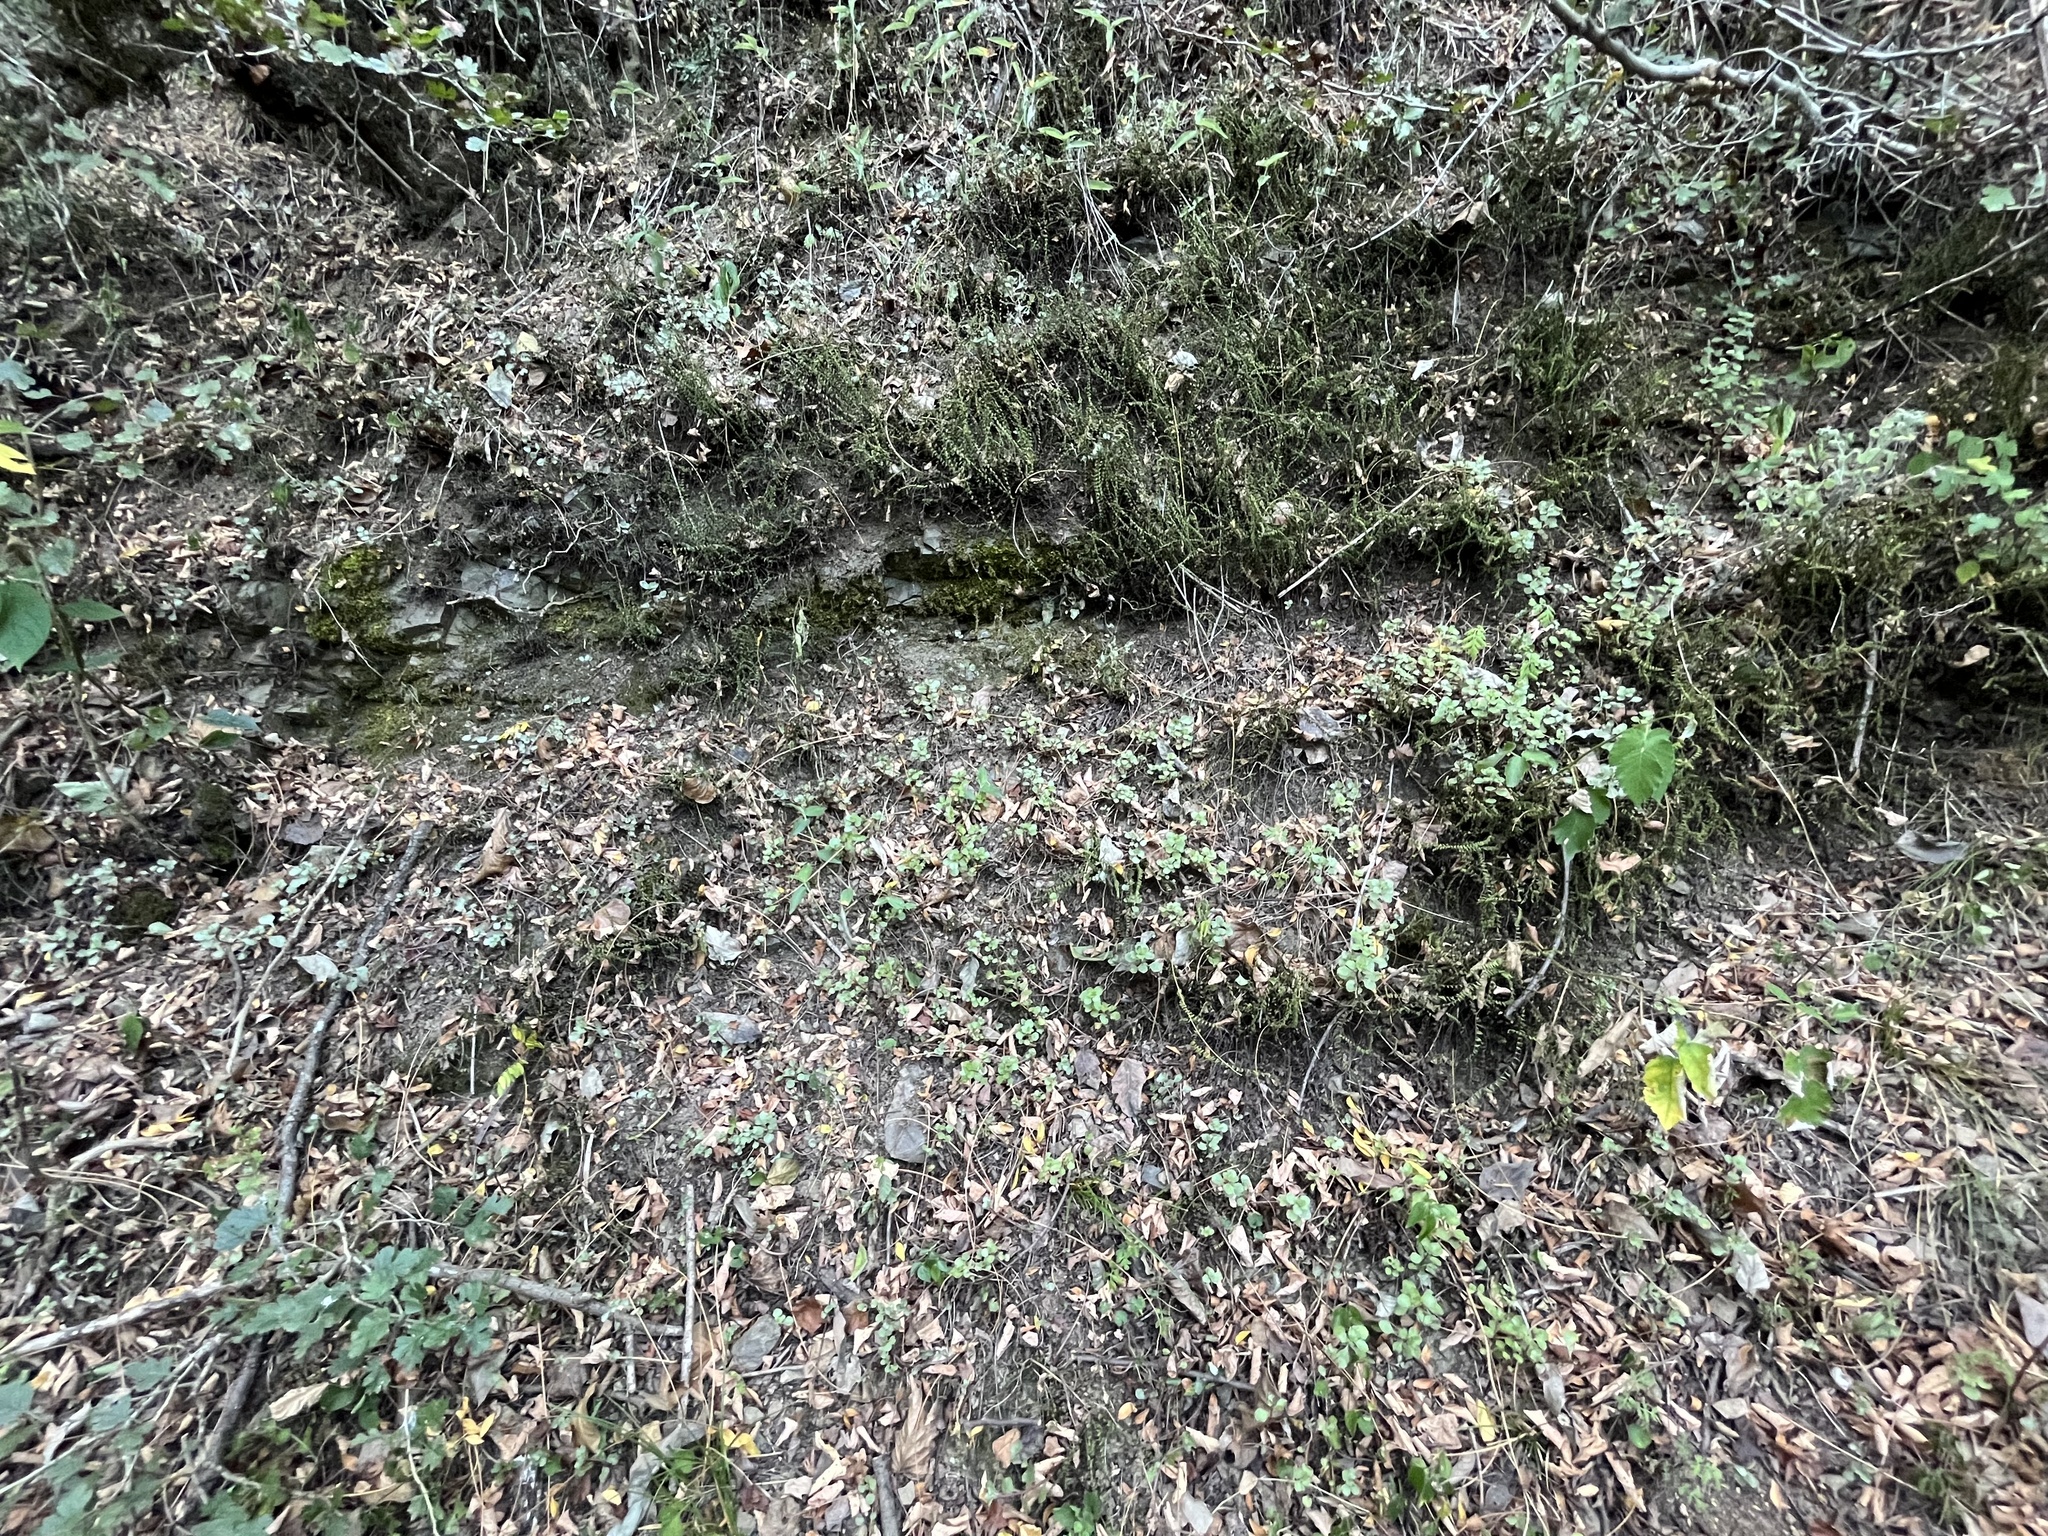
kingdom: Plantae
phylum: Tracheophyta
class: Polypodiopsida
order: Polypodiales
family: Aspleniaceae
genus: Asplenium
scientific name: Asplenium trichomanes
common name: Maidenhair spleenwort
